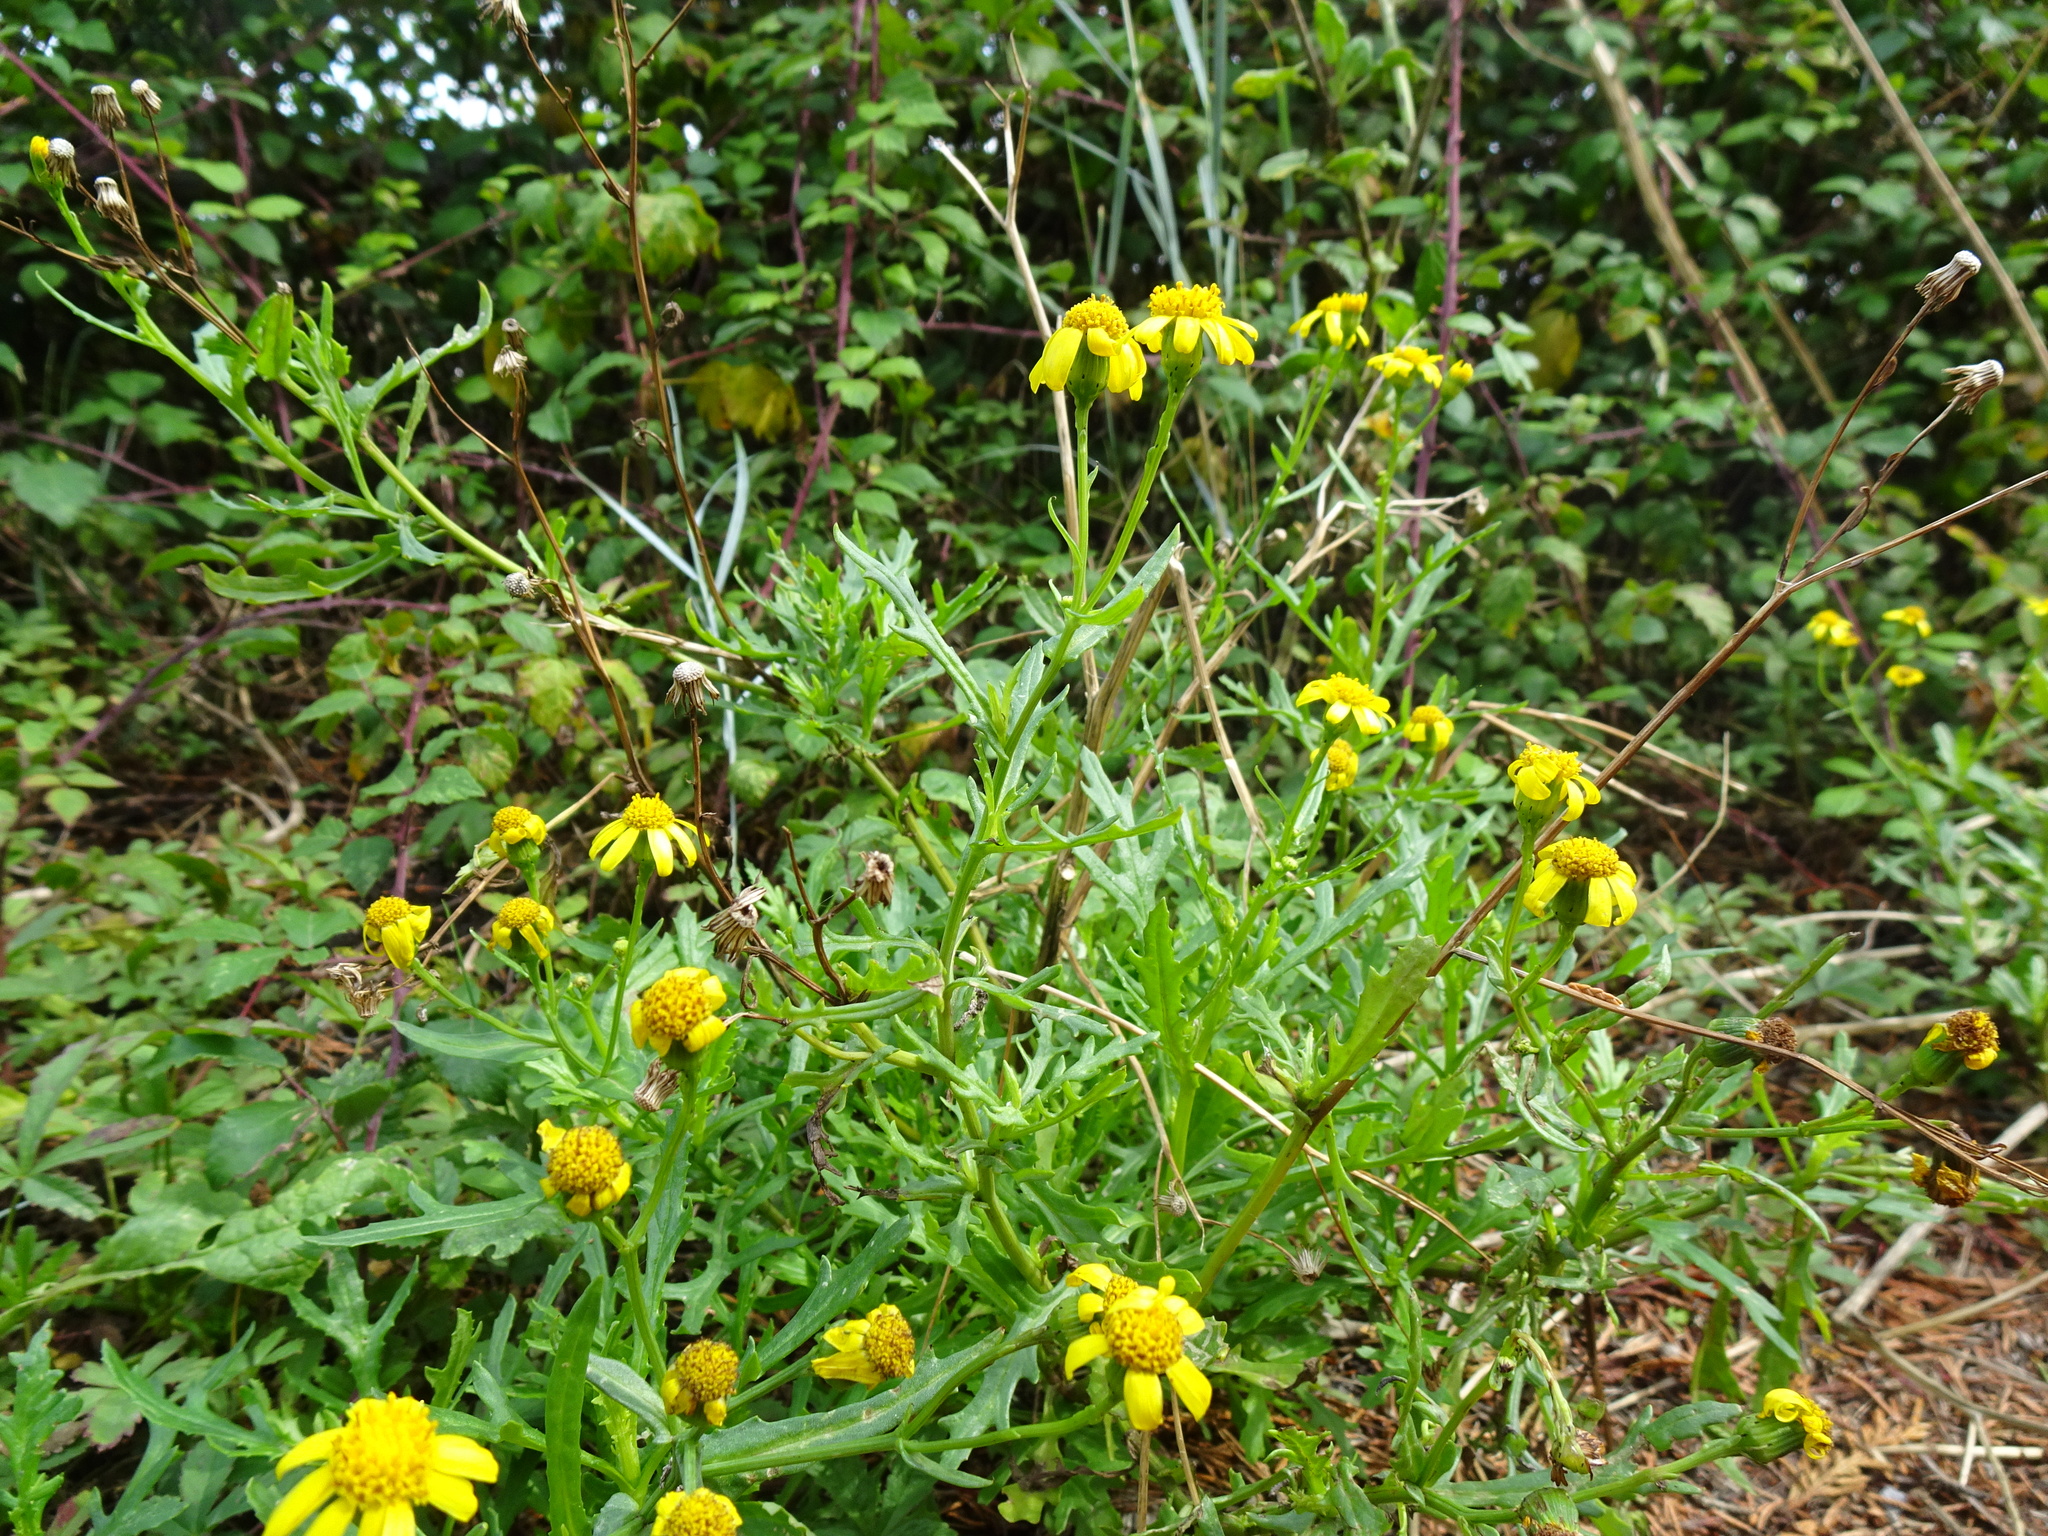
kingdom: Plantae
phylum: Tracheophyta
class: Magnoliopsida
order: Asterales
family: Asteraceae
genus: Senecio
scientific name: Senecio squalidus
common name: Oxford ragwort
